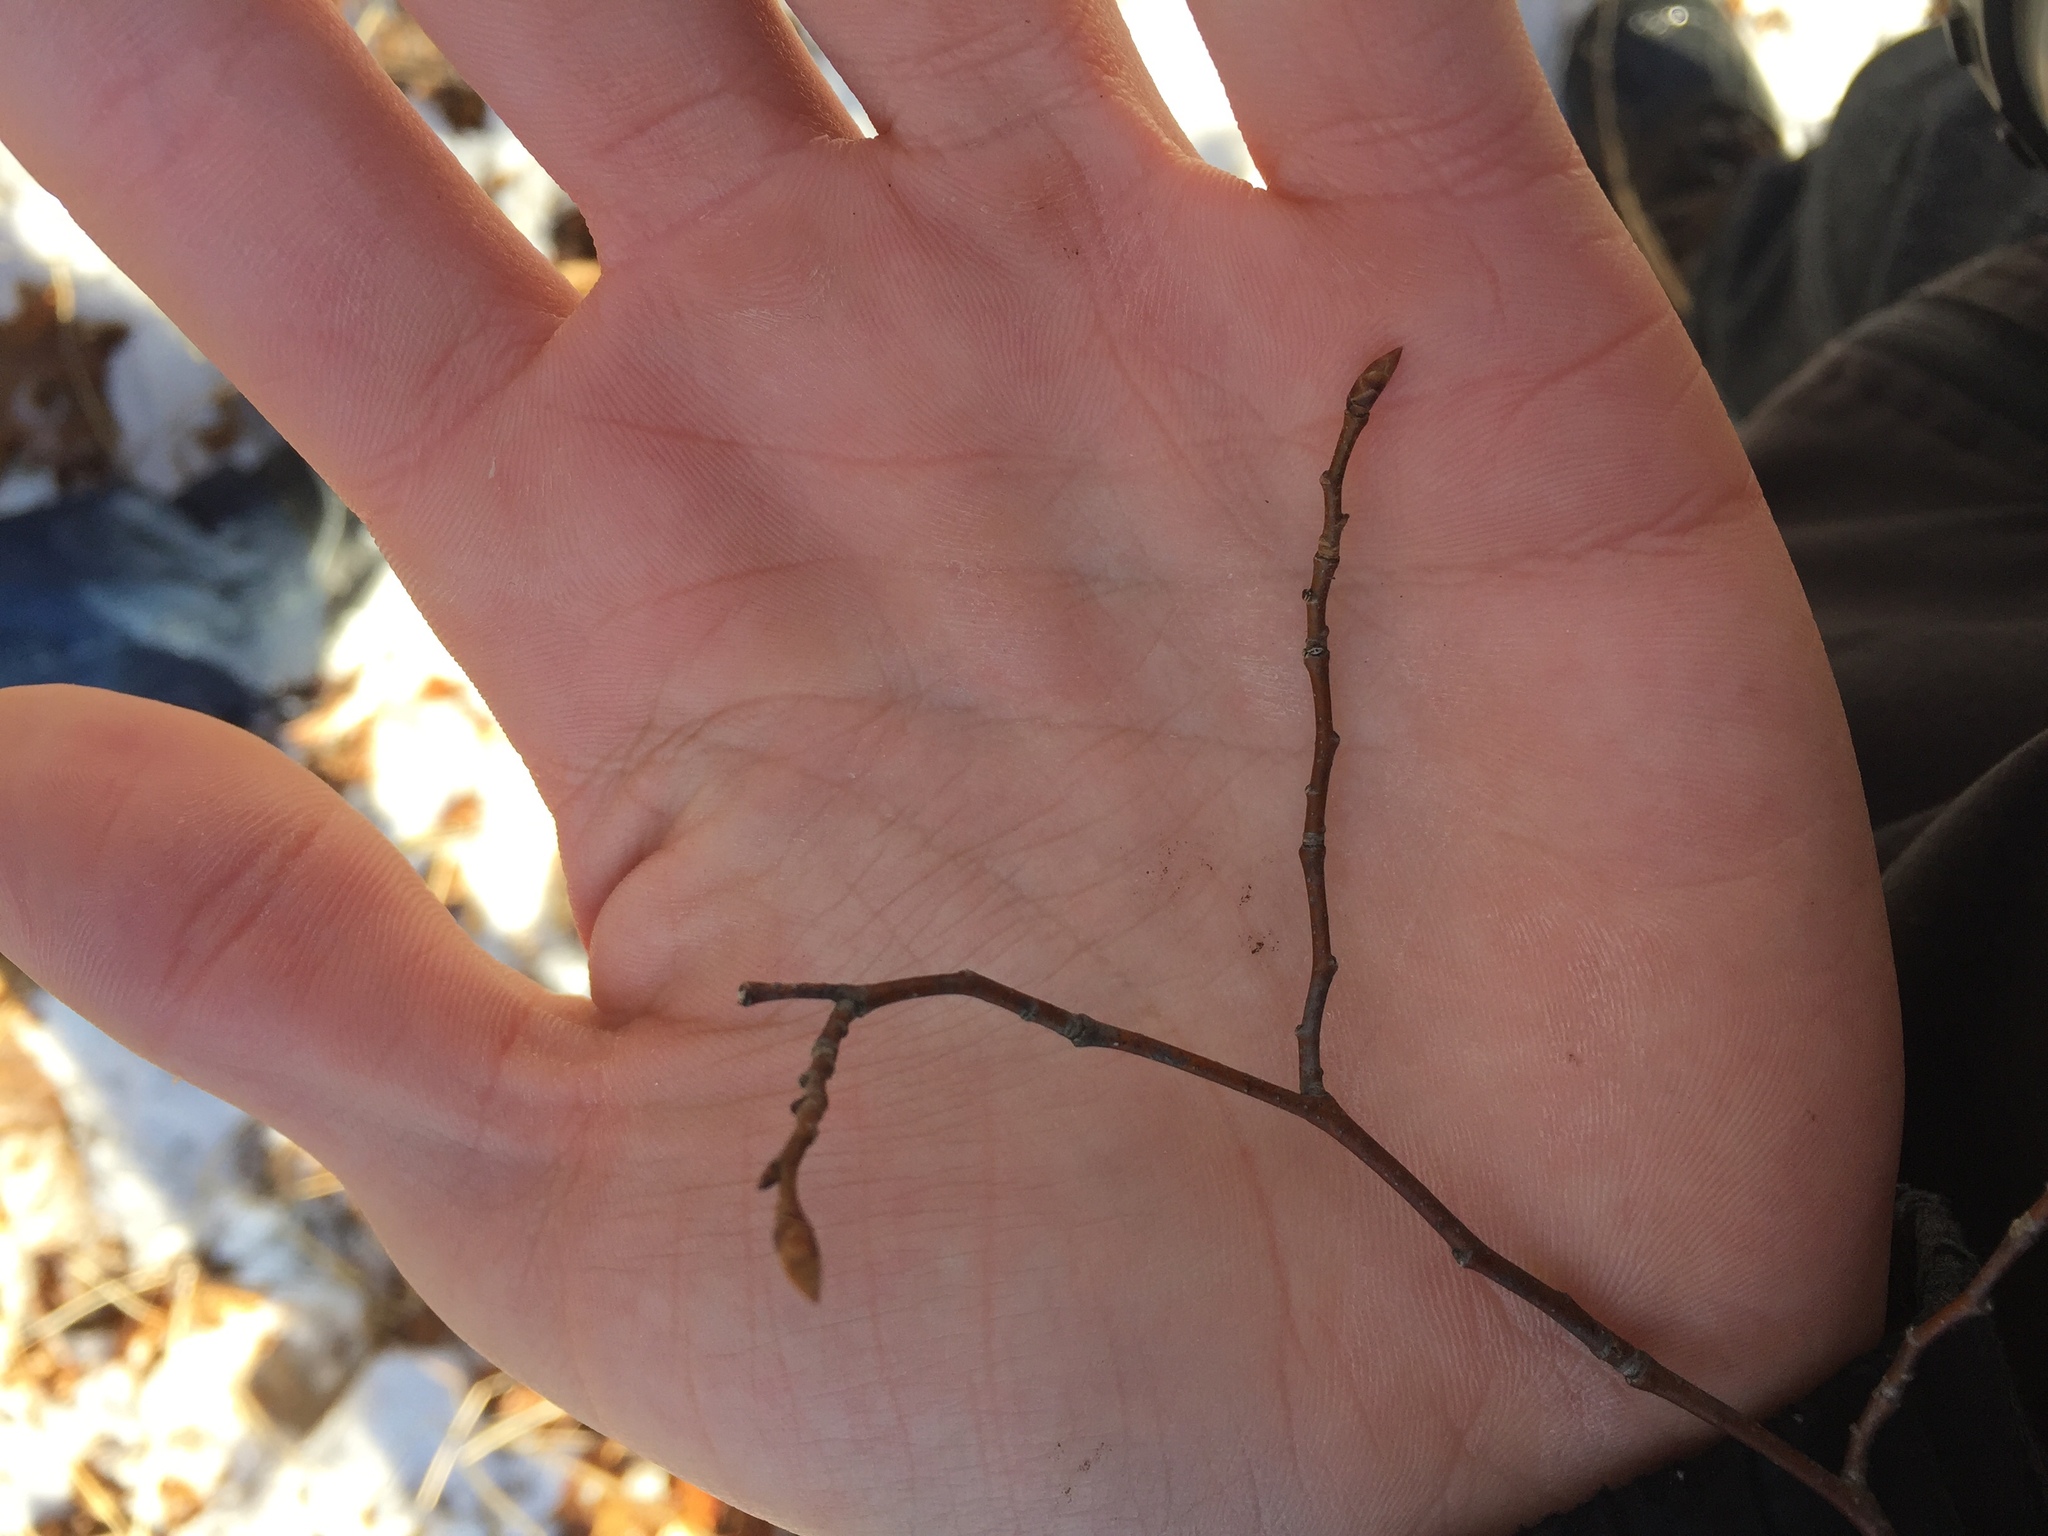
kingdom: Plantae
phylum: Tracheophyta
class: Magnoliopsida
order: Fagales
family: Betulaceae
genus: Ostrya
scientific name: Ostrya virginiana
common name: Ironwood
